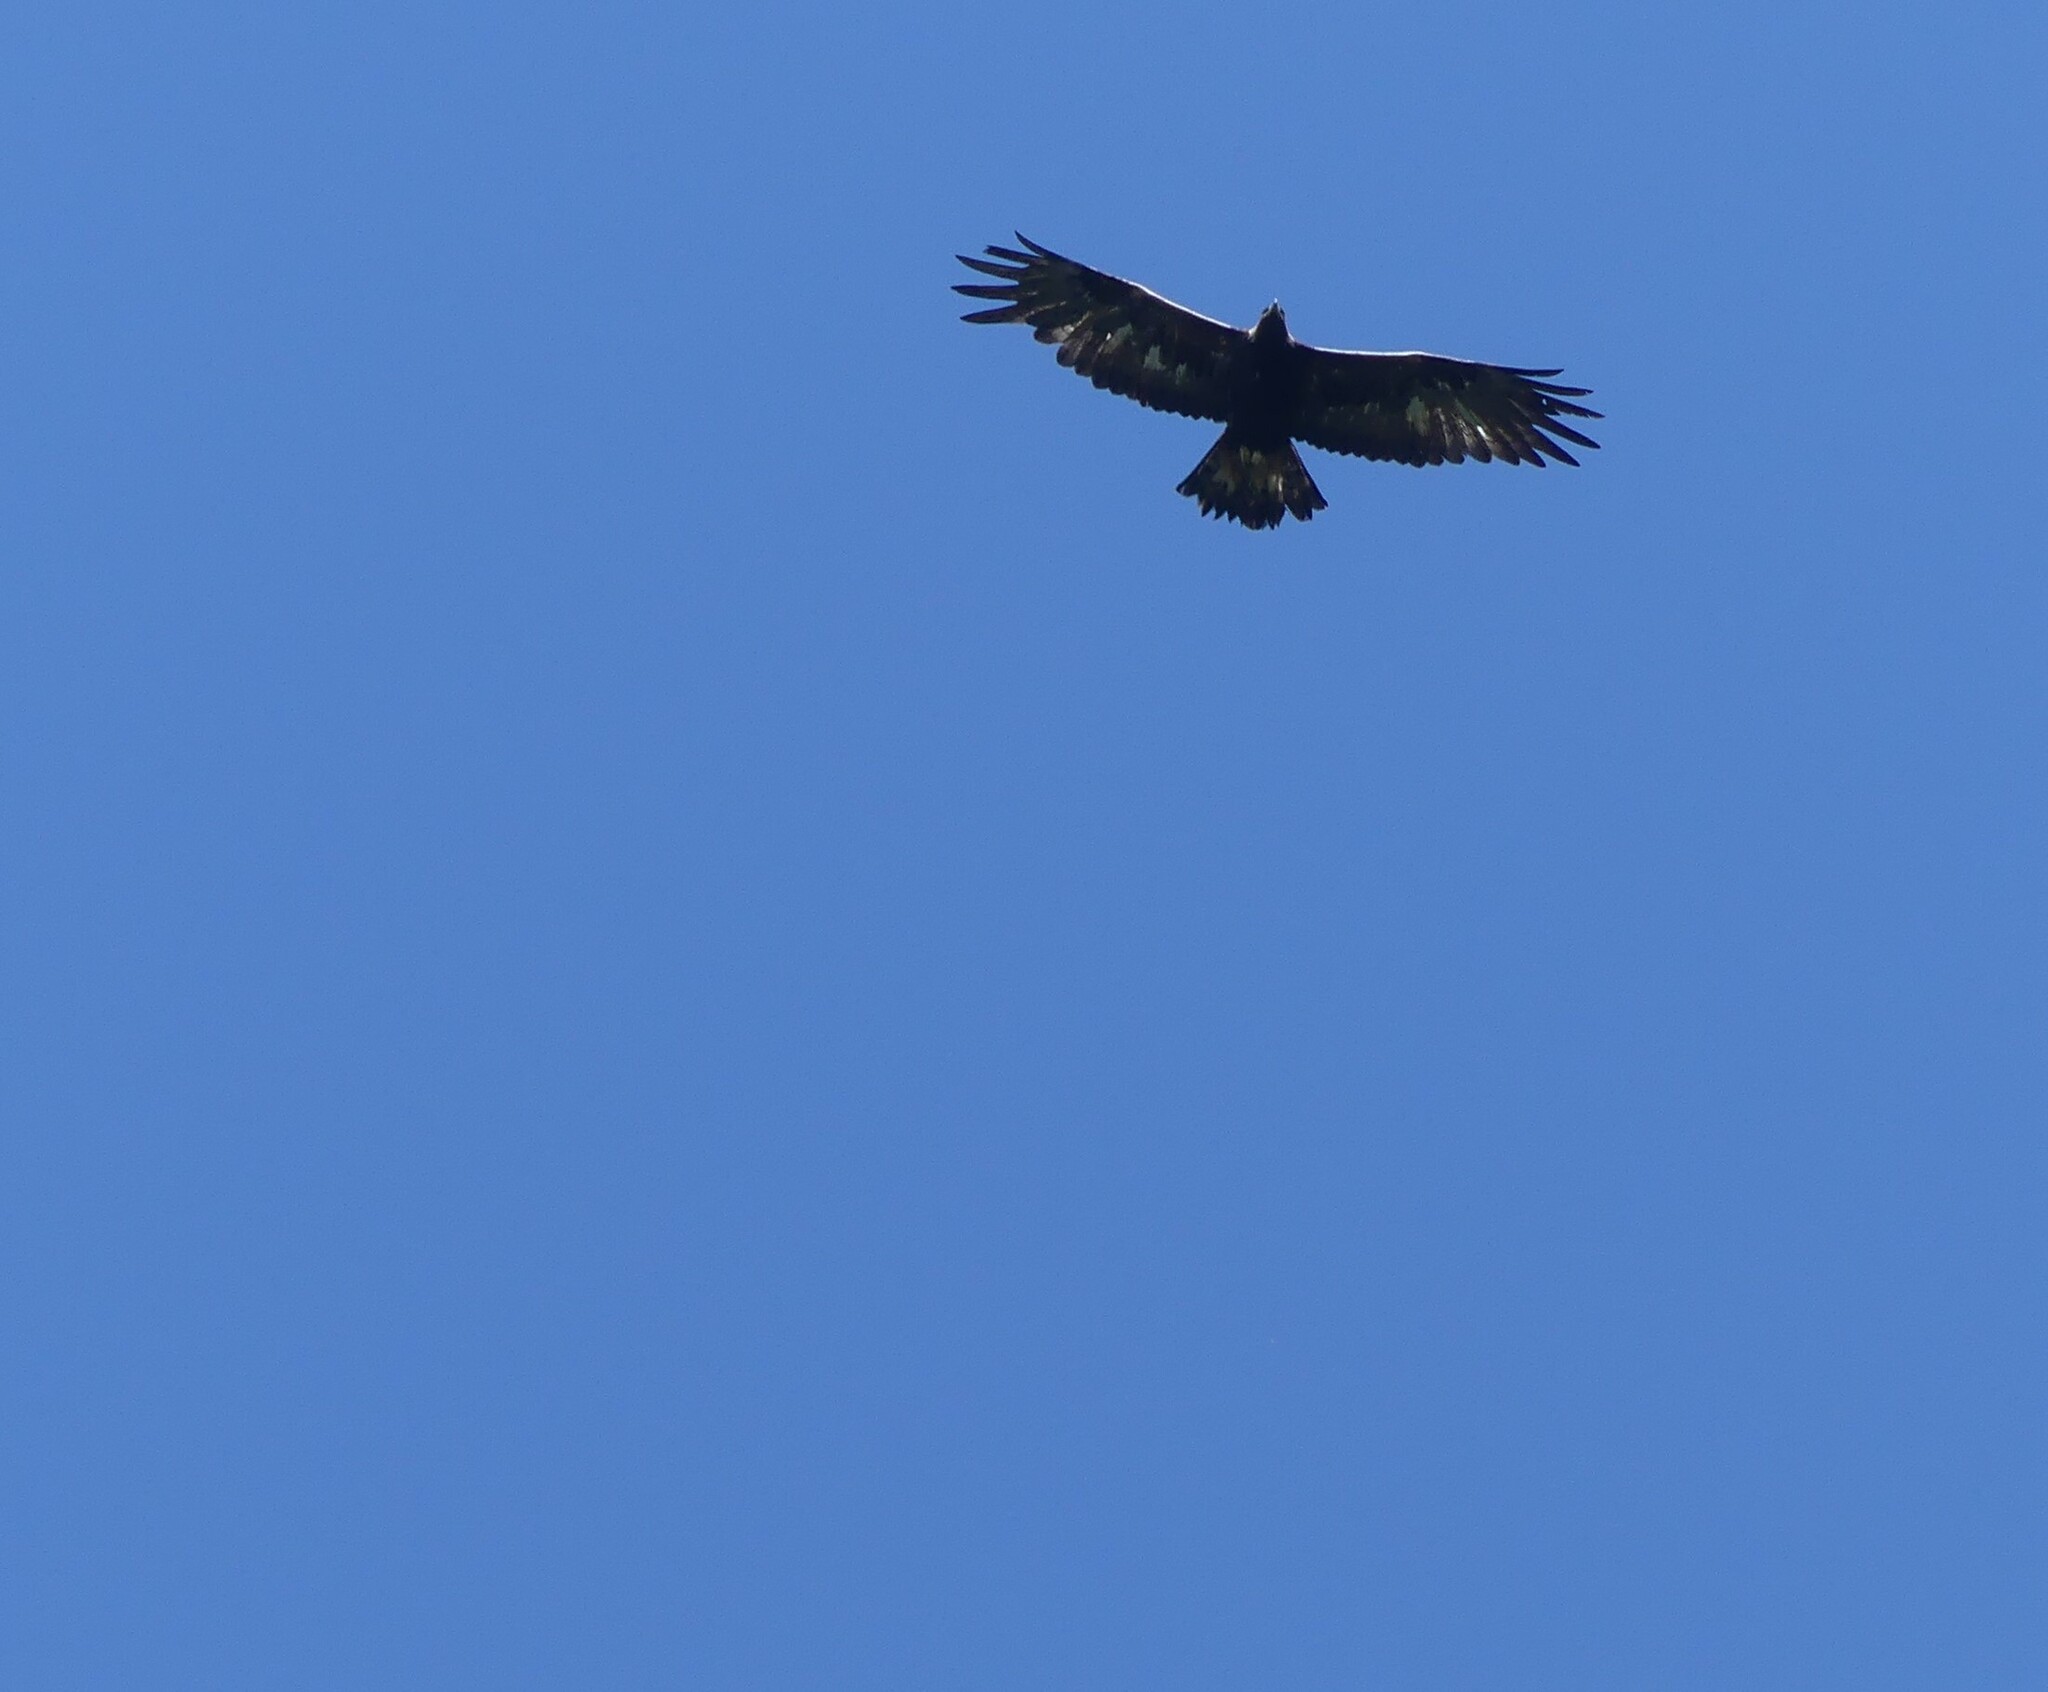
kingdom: Animalia
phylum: Chordata
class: Aves
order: Accipitriformes
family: Accipitridae
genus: Aquila
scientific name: Aquila chrysaetos
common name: Golden eagle
